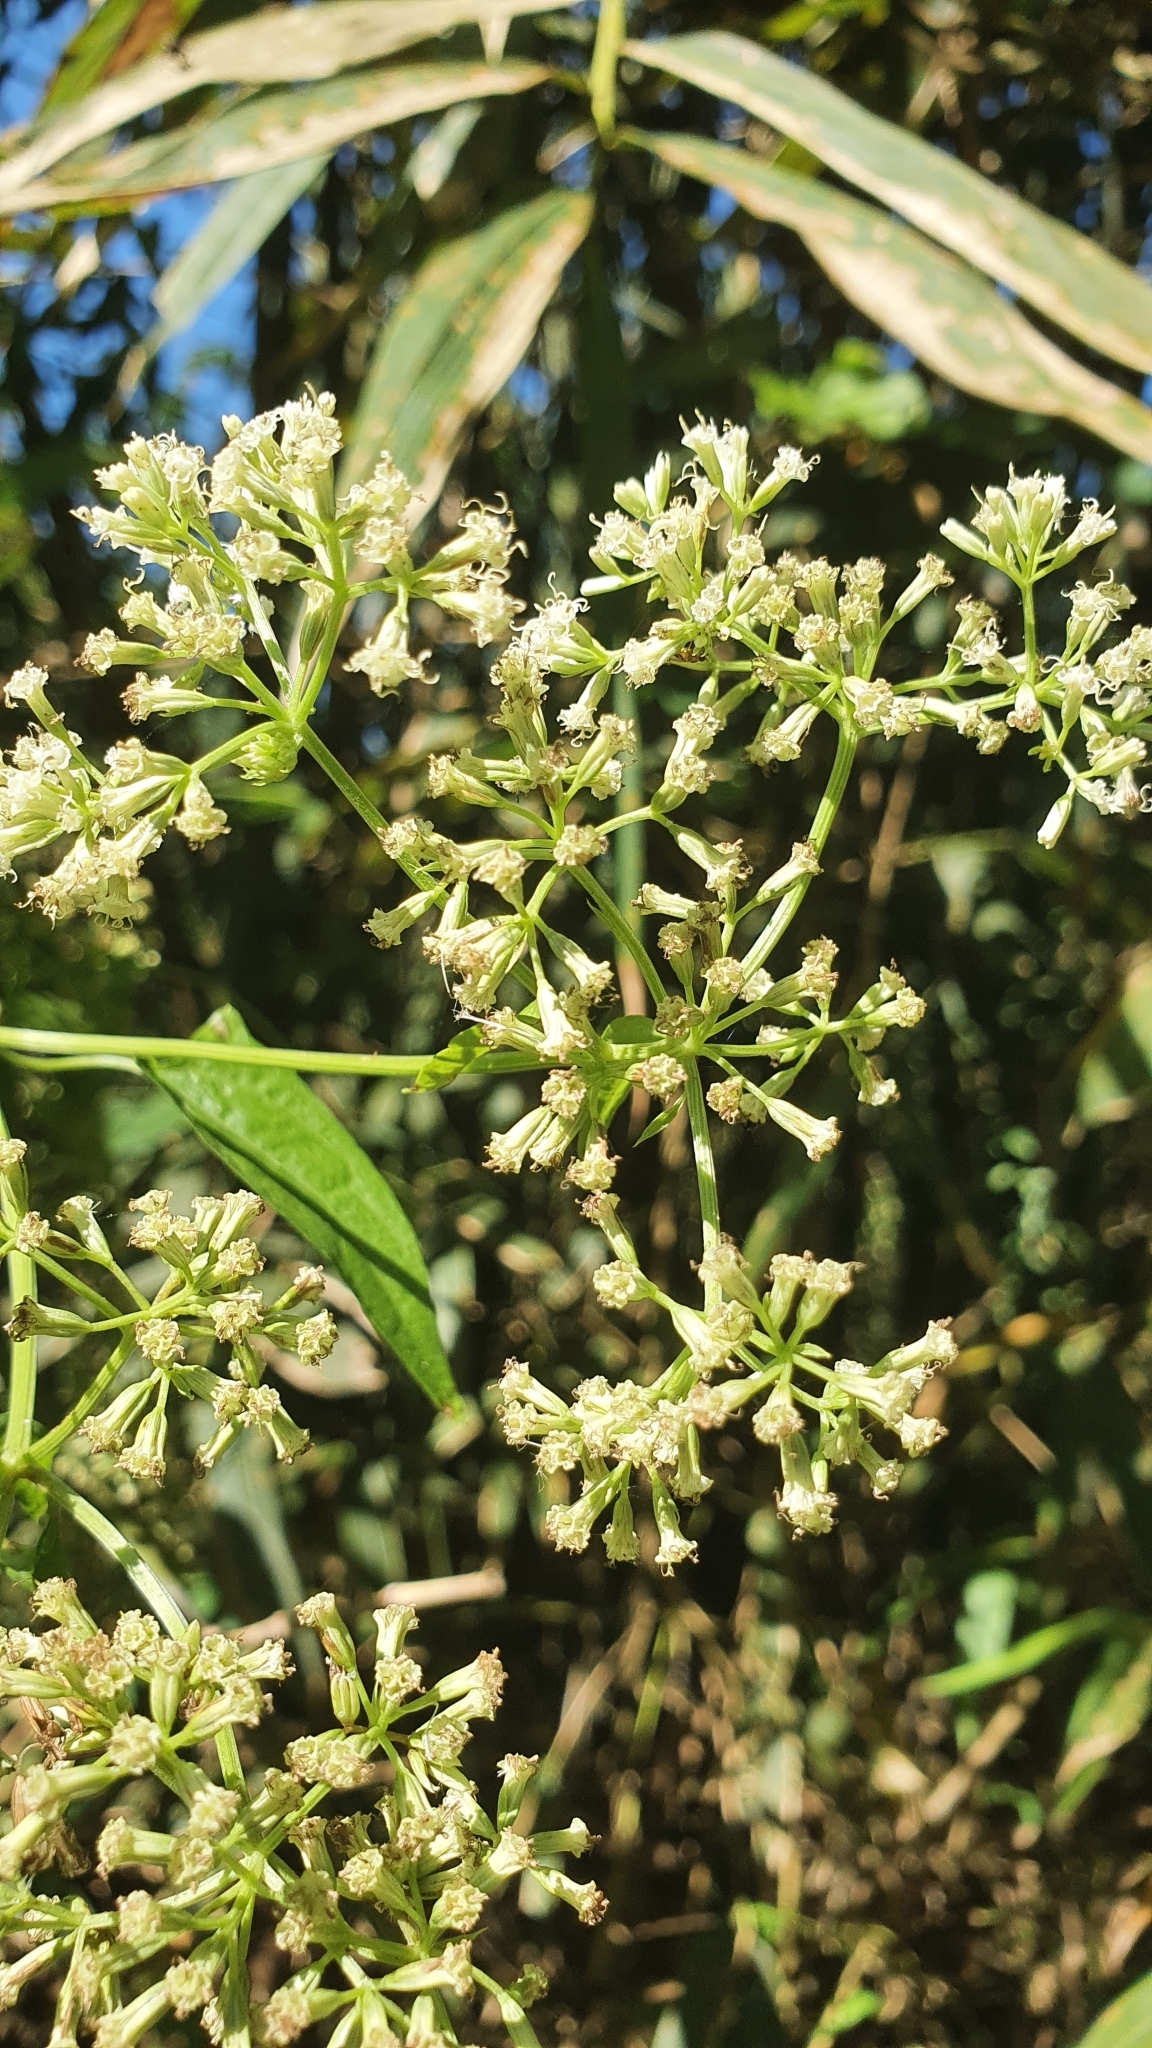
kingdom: Plantae
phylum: Tracheophyta
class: Magnoliopsida
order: Asterales
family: Asteraceae
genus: Mikania
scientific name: Mikania micrantha
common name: Mile-a-minute
